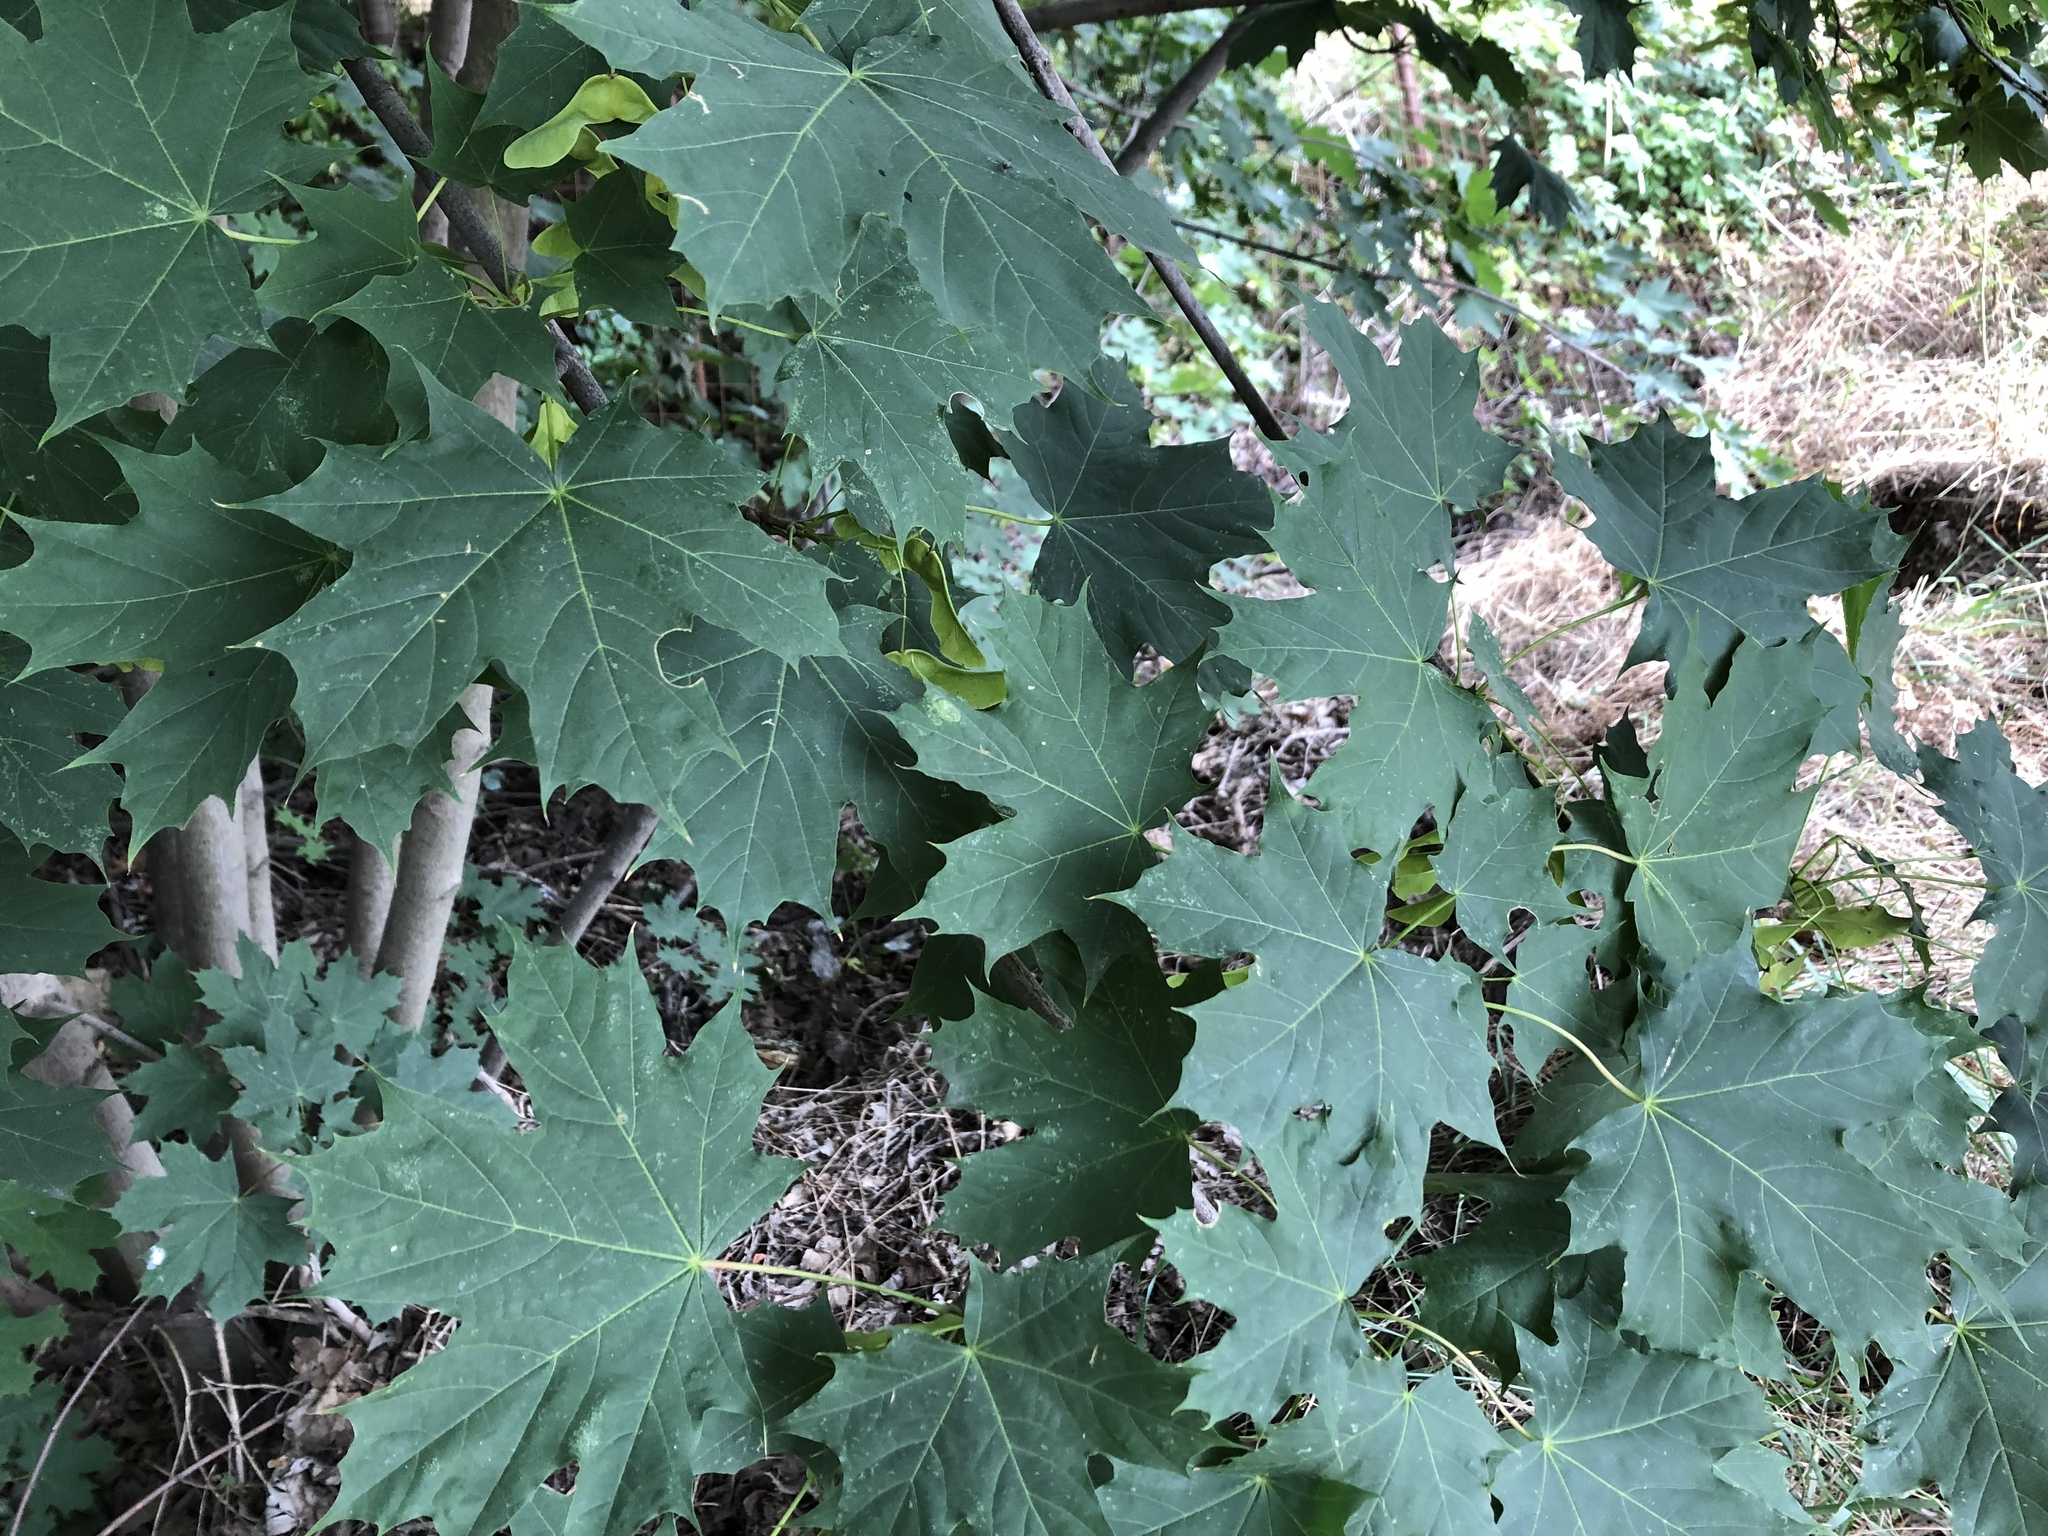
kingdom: Plantae
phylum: Tracheophyta
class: Magnoliopsida
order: Sapindales
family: Sapindaceae
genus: Acer
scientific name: Acer platanoides
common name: Norway maple
